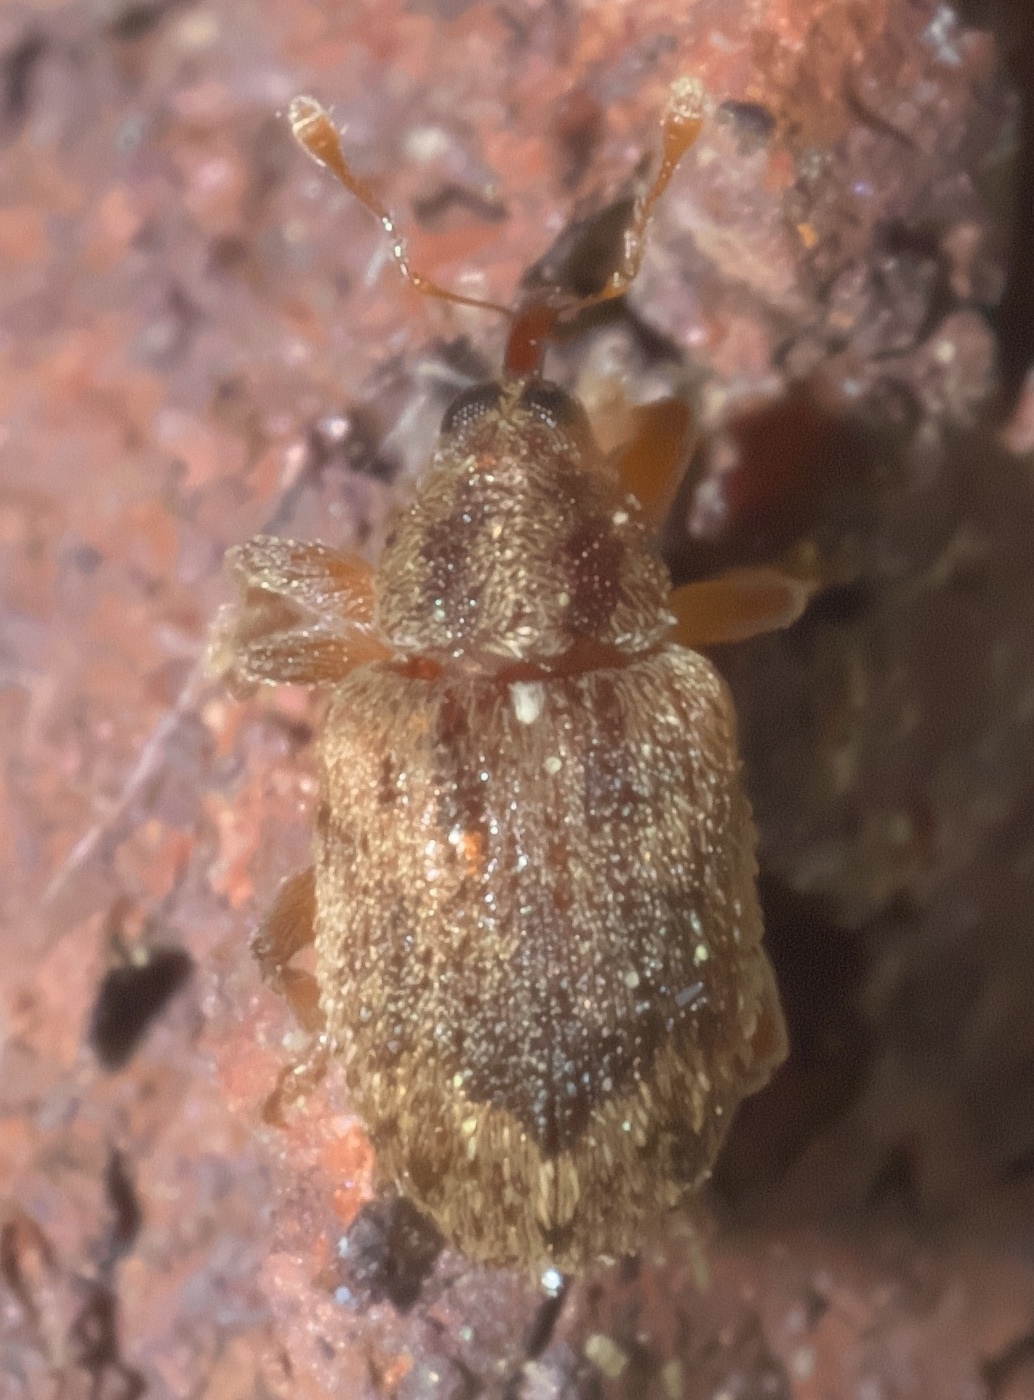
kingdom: Animalia
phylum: Arthropoda
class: Insecta
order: Coleoptera
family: Curculionidae
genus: Thysanocnemis
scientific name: Thysanocnemis bischoffi
